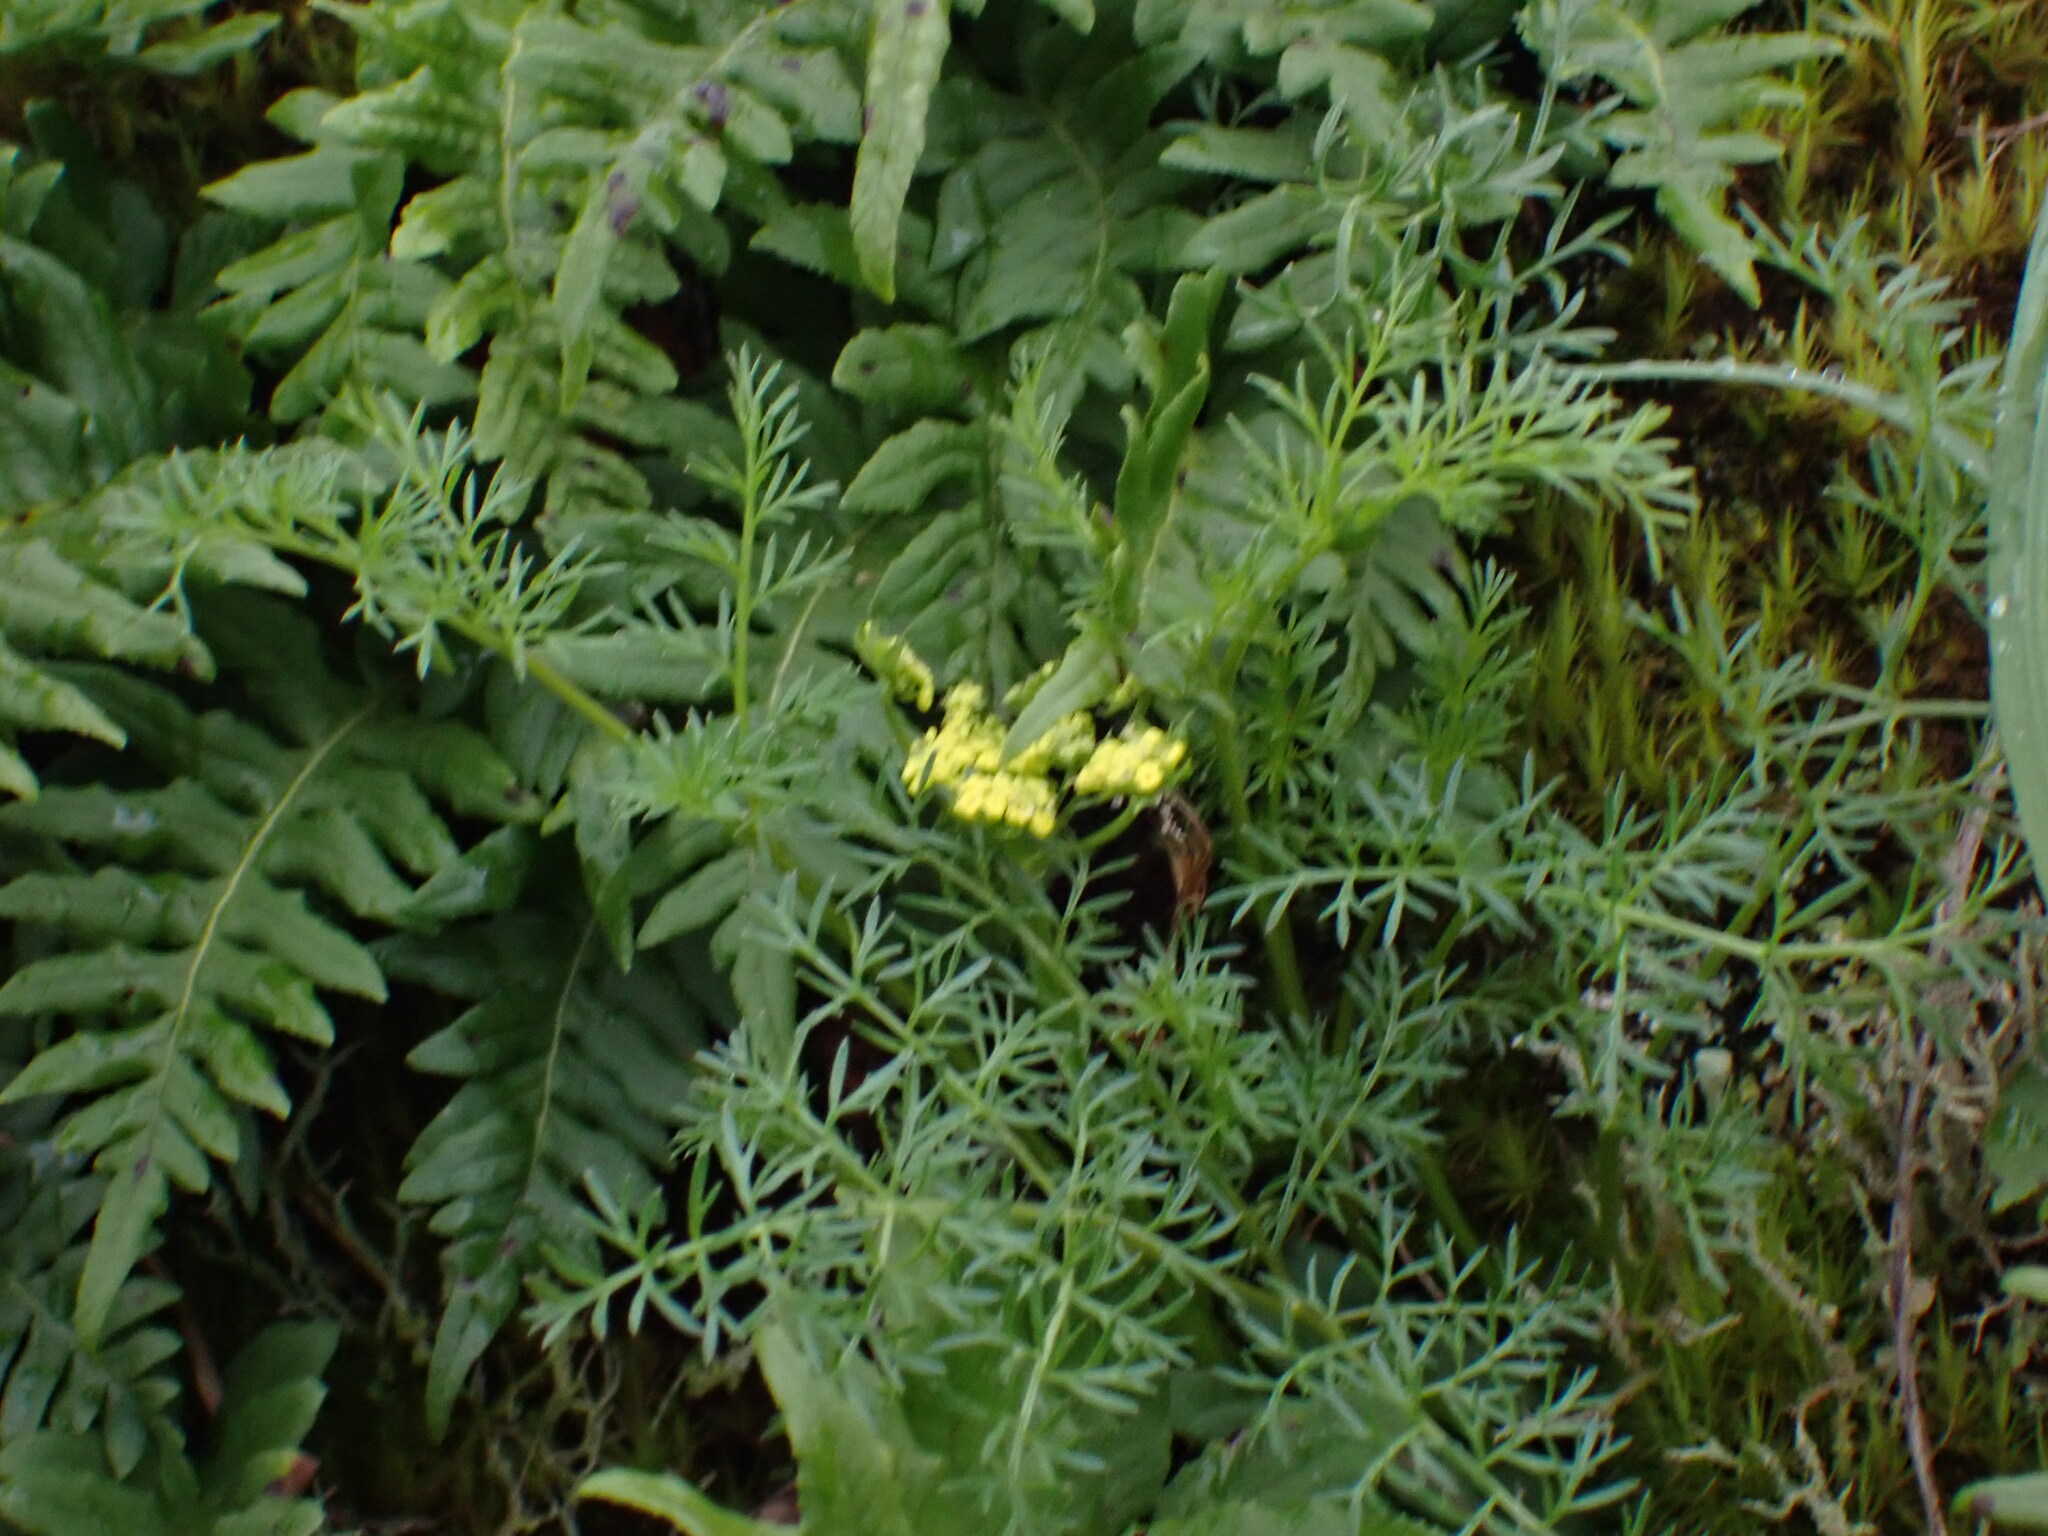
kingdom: Plantae
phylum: Tracheophyta
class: Magnoliopsida
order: Apiales
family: Apiaceae
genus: Lomatium
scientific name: Lomatium utriculatum
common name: Fine-leaf desert-parsley
